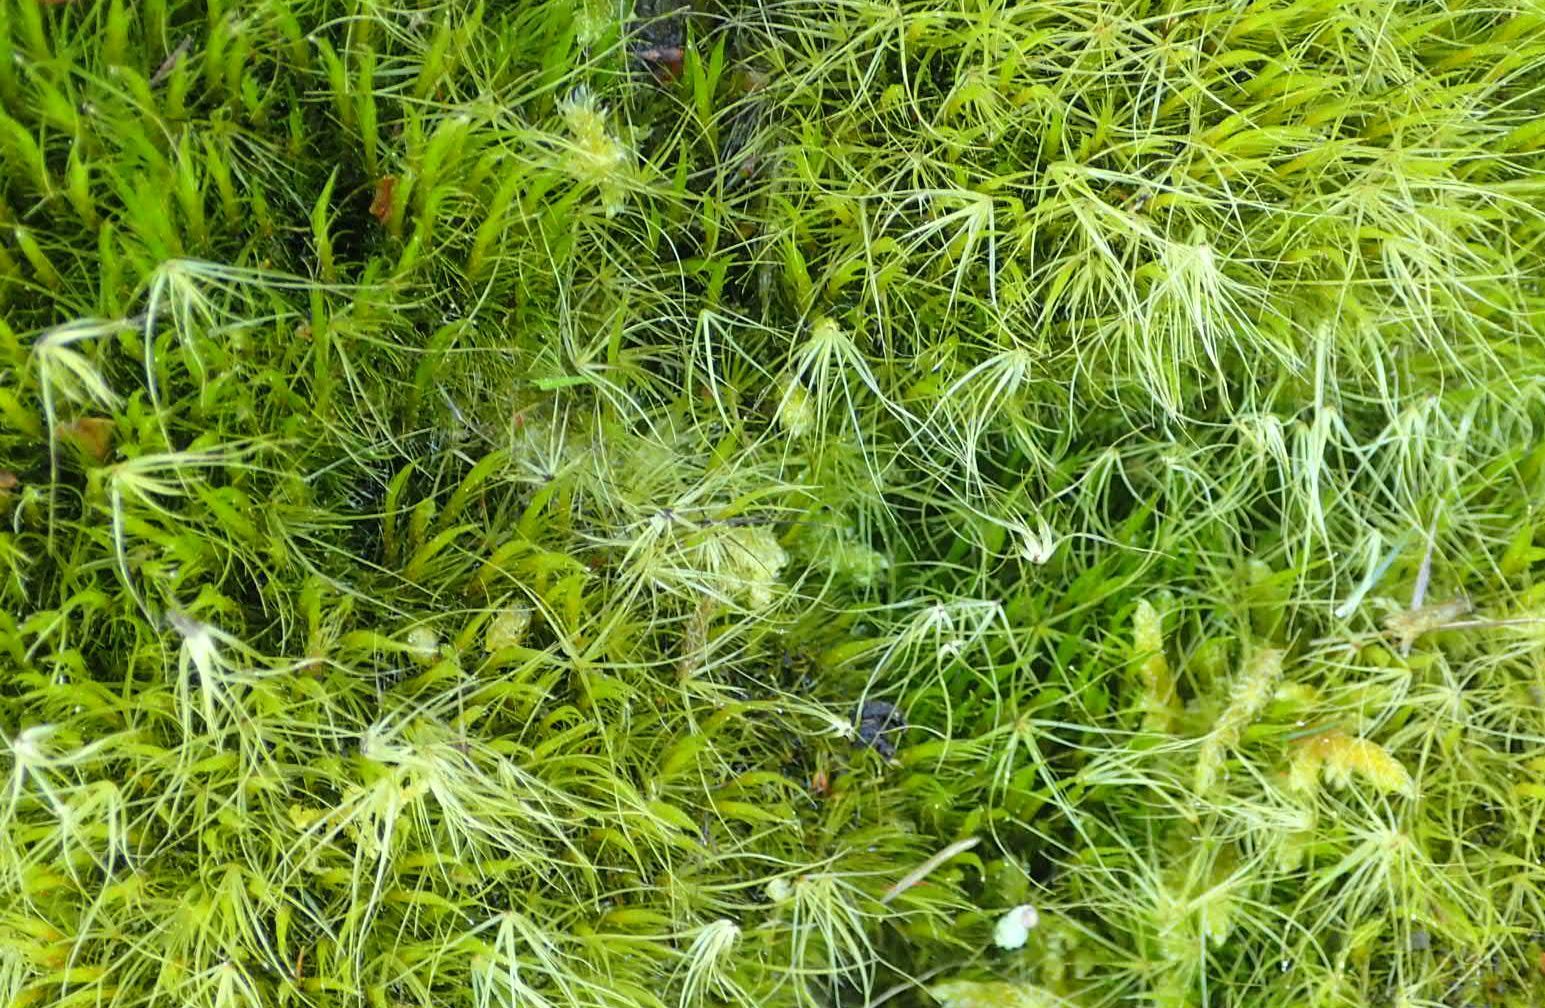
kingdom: Plantae
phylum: Bryophyta
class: Bryopsida
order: Dicranales
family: Leucobryaceae
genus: Campylopus
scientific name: Campylopus clavatus
